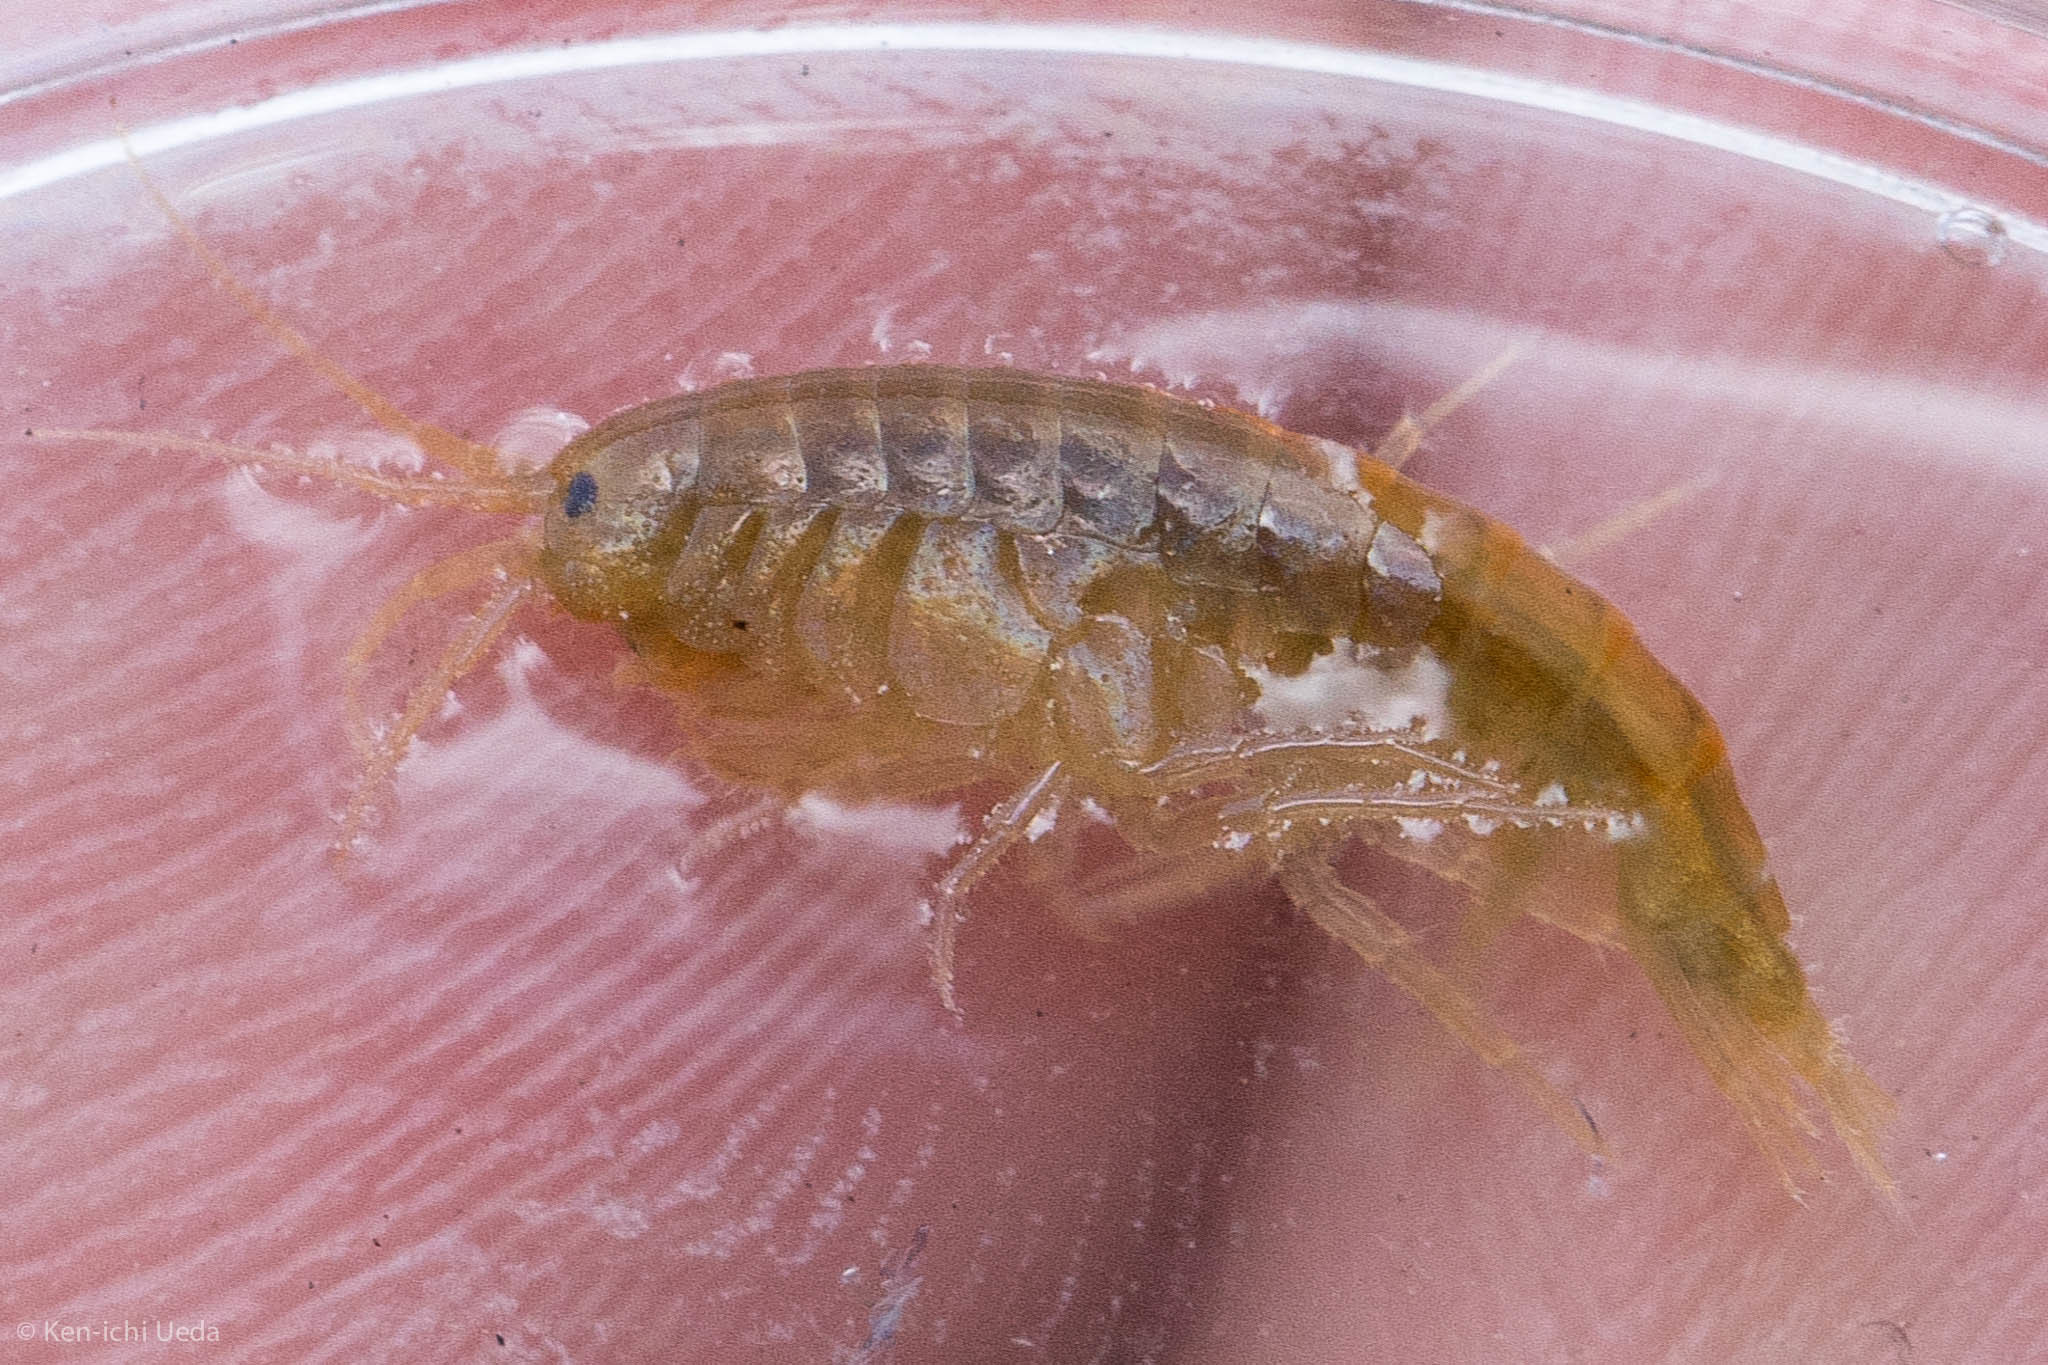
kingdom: Animalia
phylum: Arthropoda
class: Malacostraca
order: Amphipoda
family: Gammaridae
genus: Gammarus
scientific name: Gammarus lacustris
